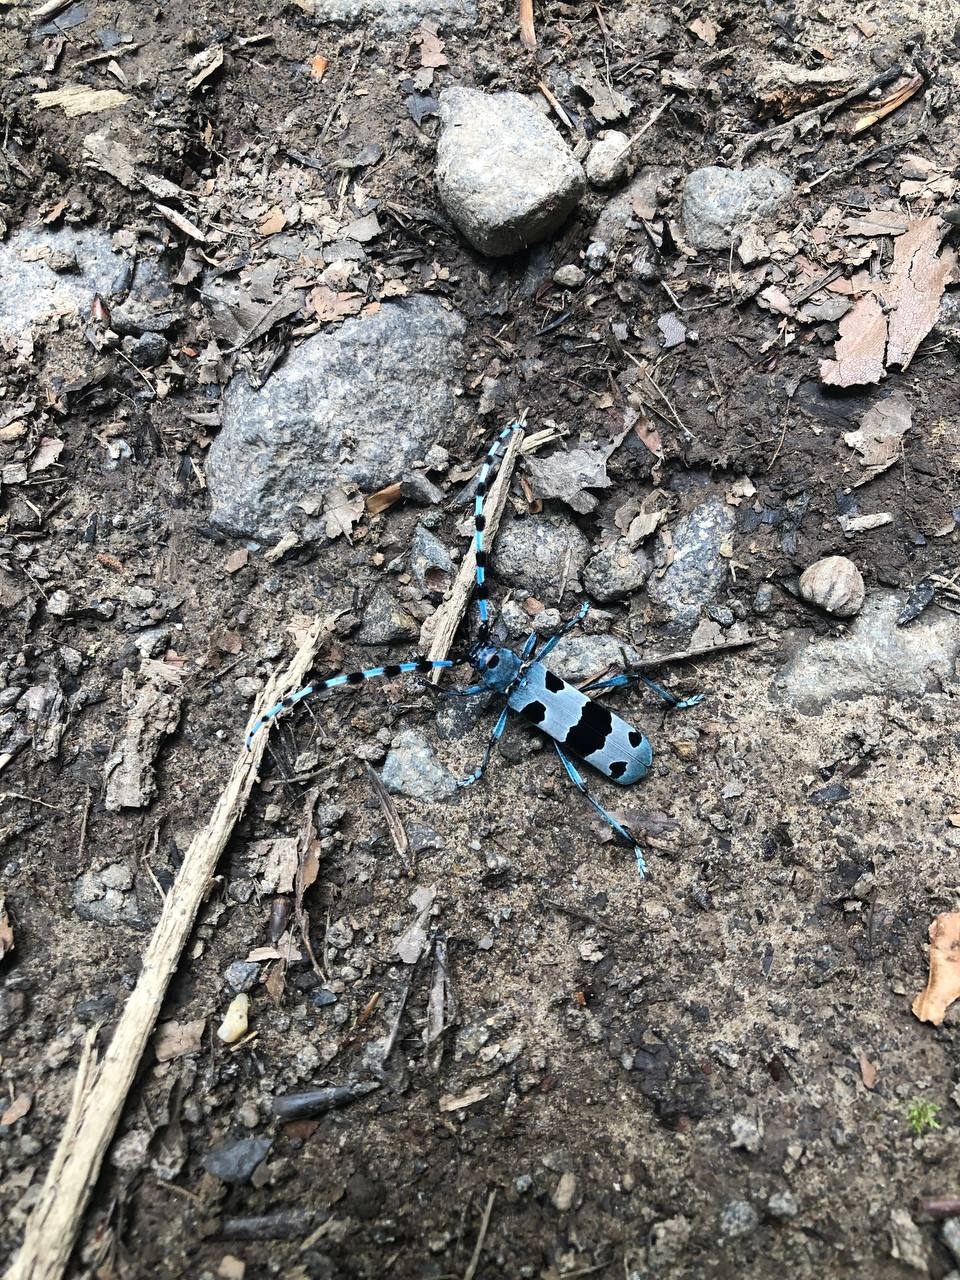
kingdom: Animalia
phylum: Arthropoda
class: Insecta
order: Coleoptera
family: Cerambycidae
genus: Rosalia
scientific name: Rosalia alpina
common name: Rosalia longicorn
